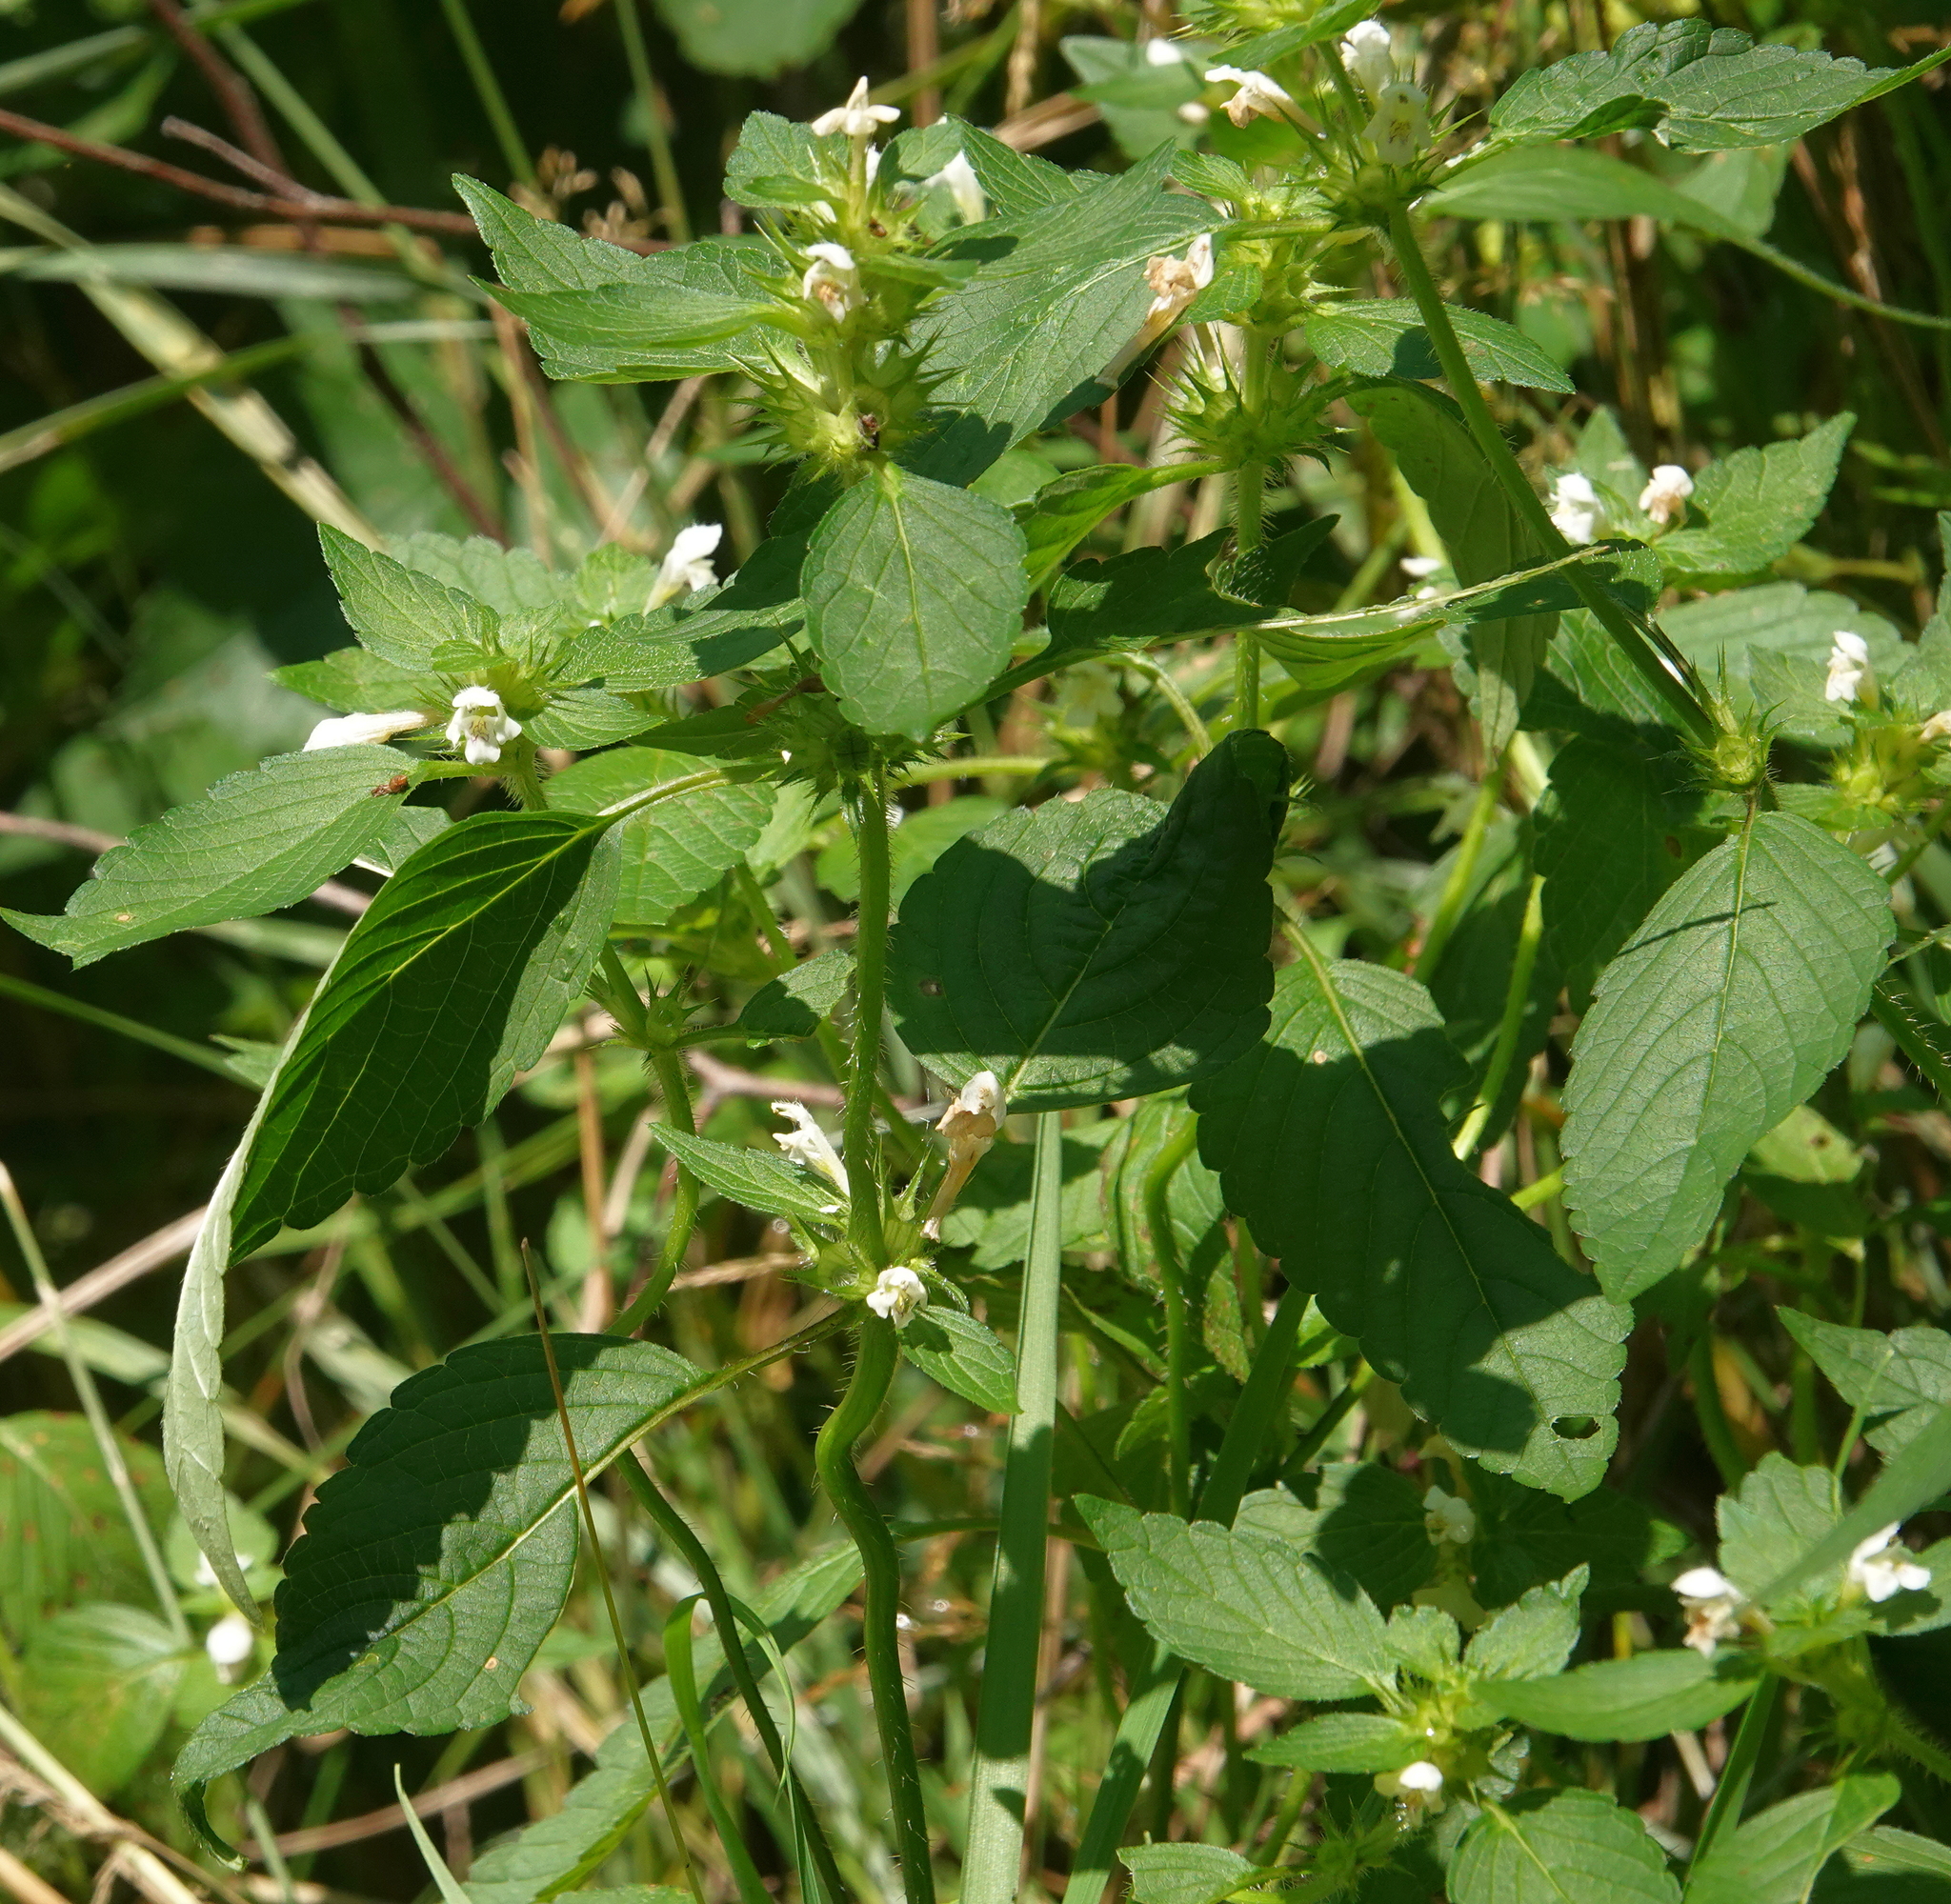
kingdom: Plantae
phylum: Tracheophyta
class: Magnoliopsida
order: Lamiales
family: Lamiaceae
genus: Galeopsis
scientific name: Galeopsis tetrahit
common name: Common hemp-nettle
